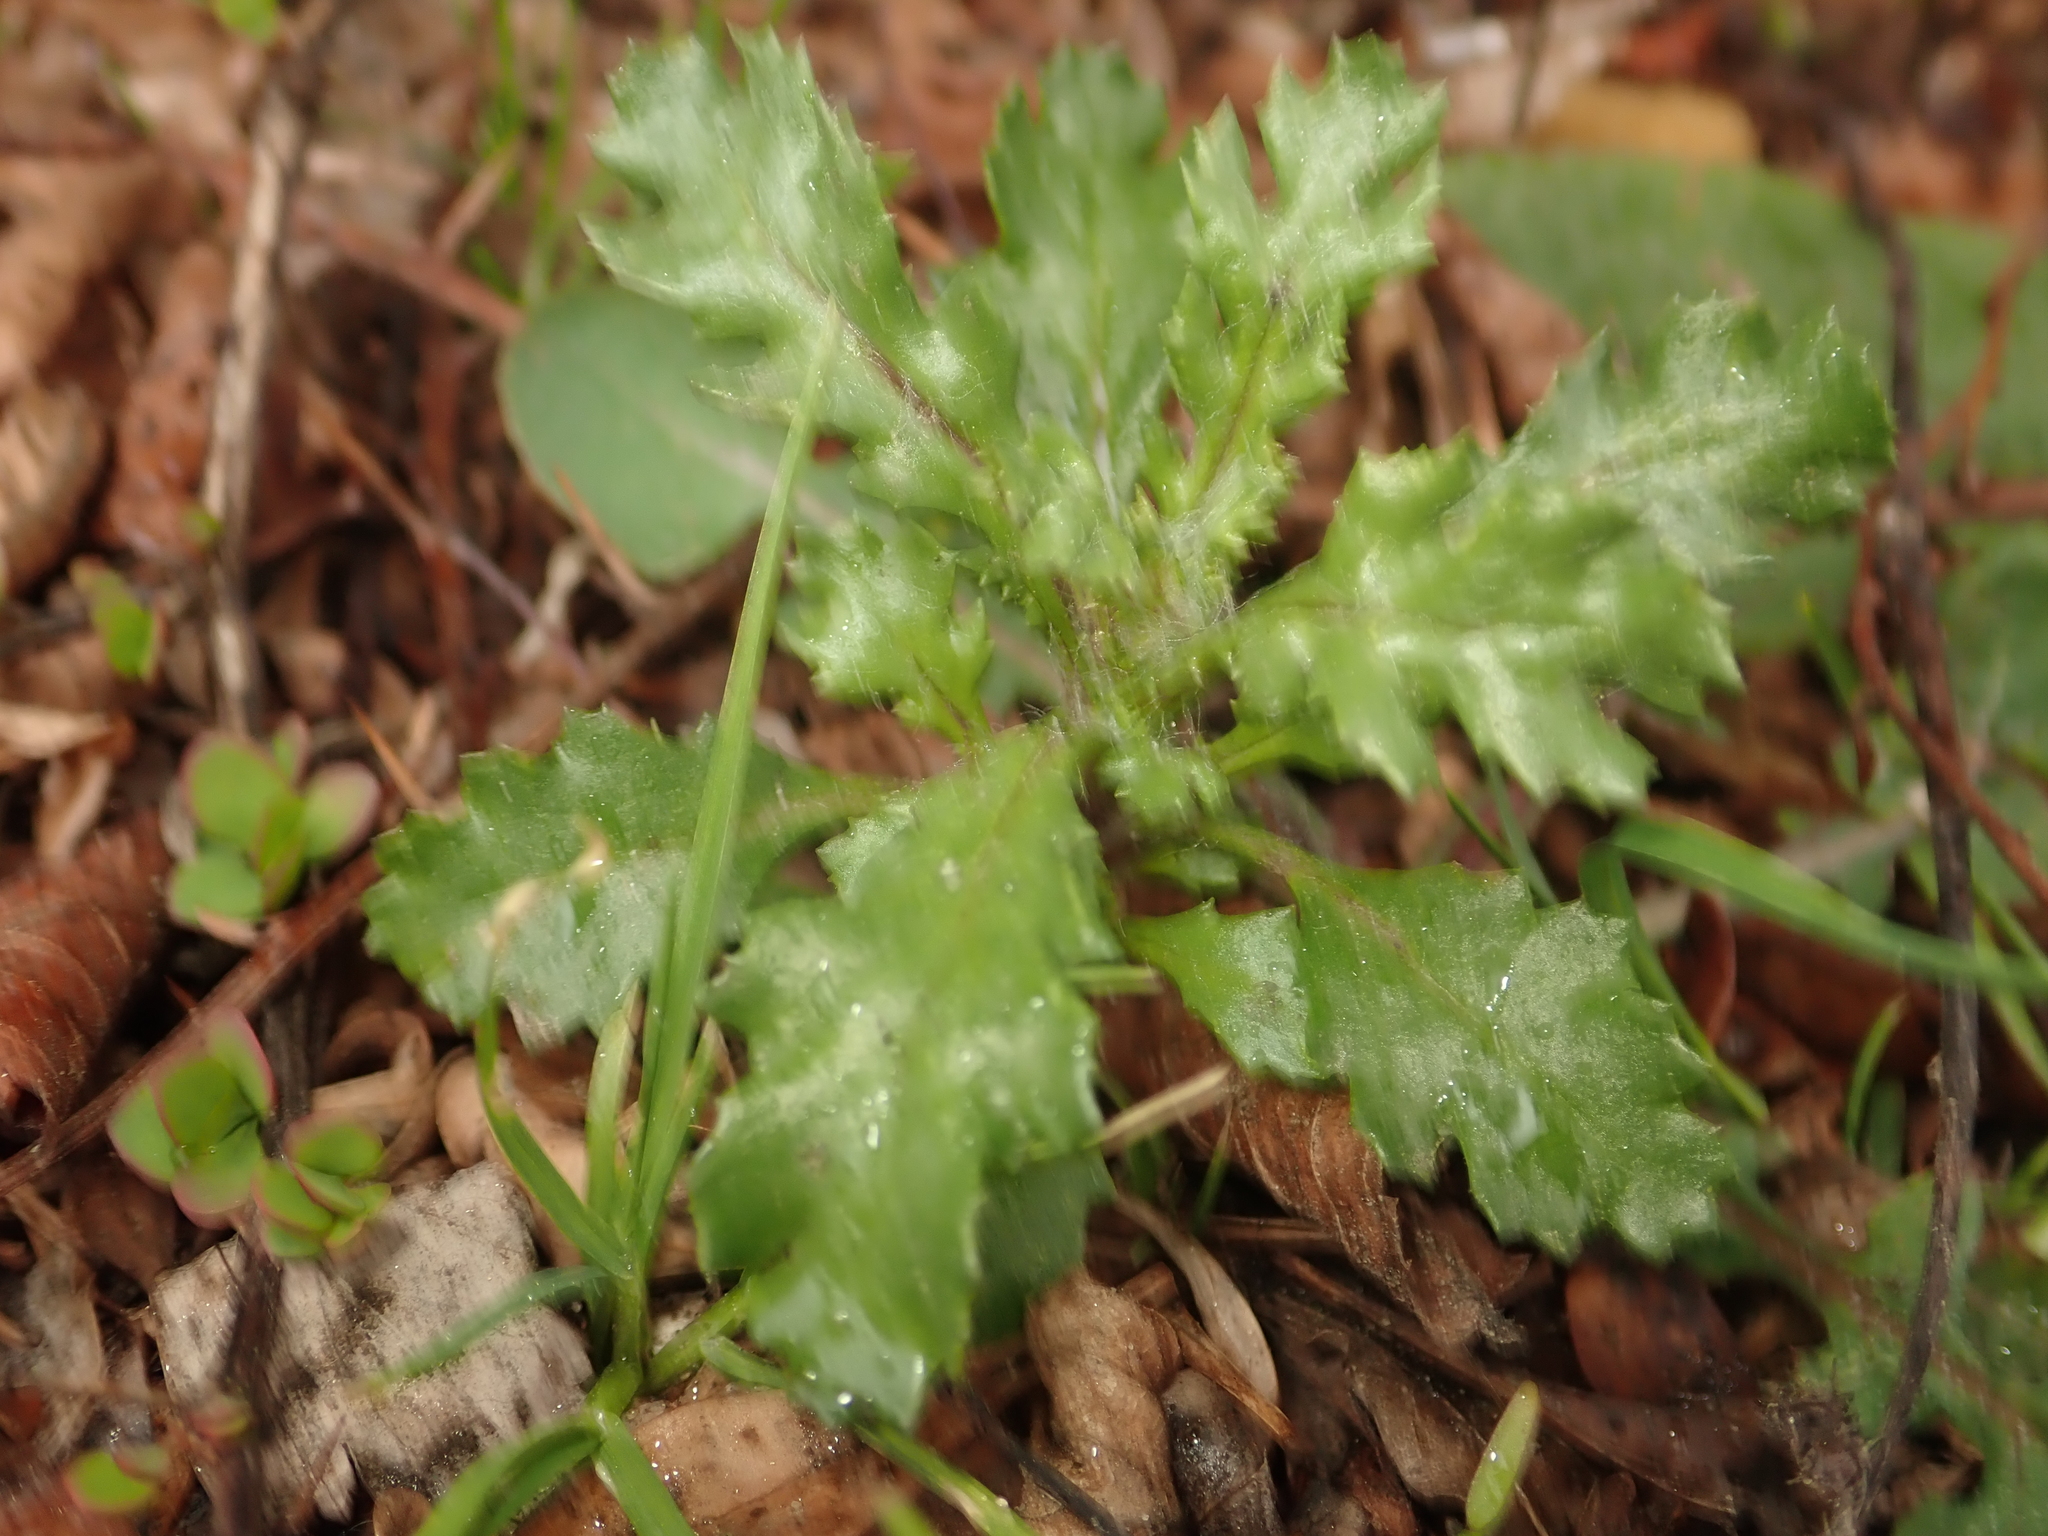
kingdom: Plantae
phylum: Tracheophyta
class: Magnoliopsida
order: Asterales
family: Asteraceae
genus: Senecio
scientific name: Senecio vulgaris
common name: Old-man-in-the-spring
